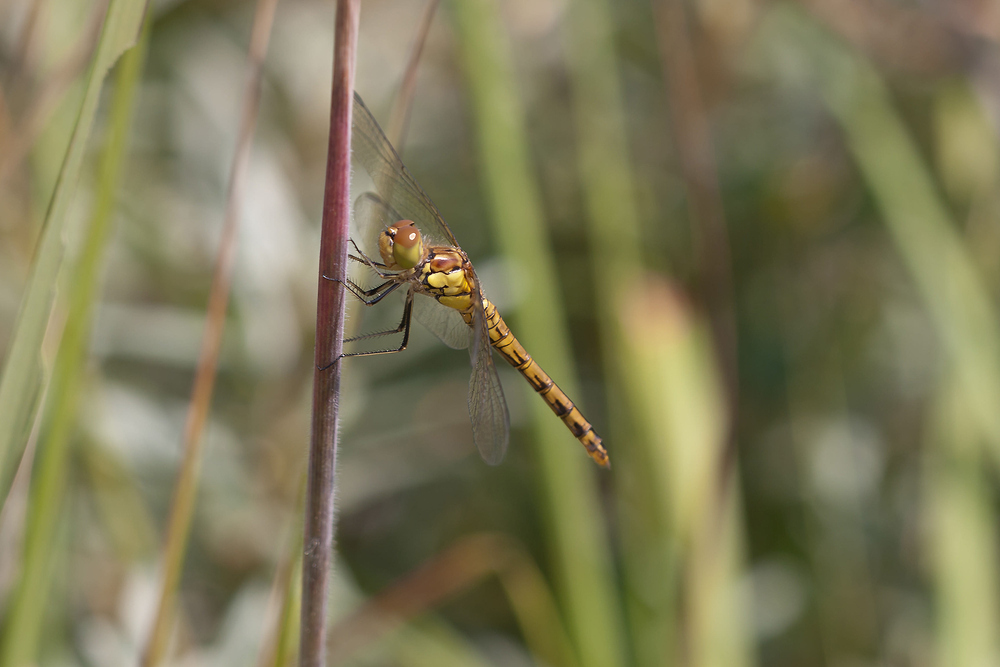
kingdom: Animalia
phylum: Arthropoda
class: Insecta
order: Odonata
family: Libellulidae
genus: Sympetrum
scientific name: Sympetrum striolatum
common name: Common darter
